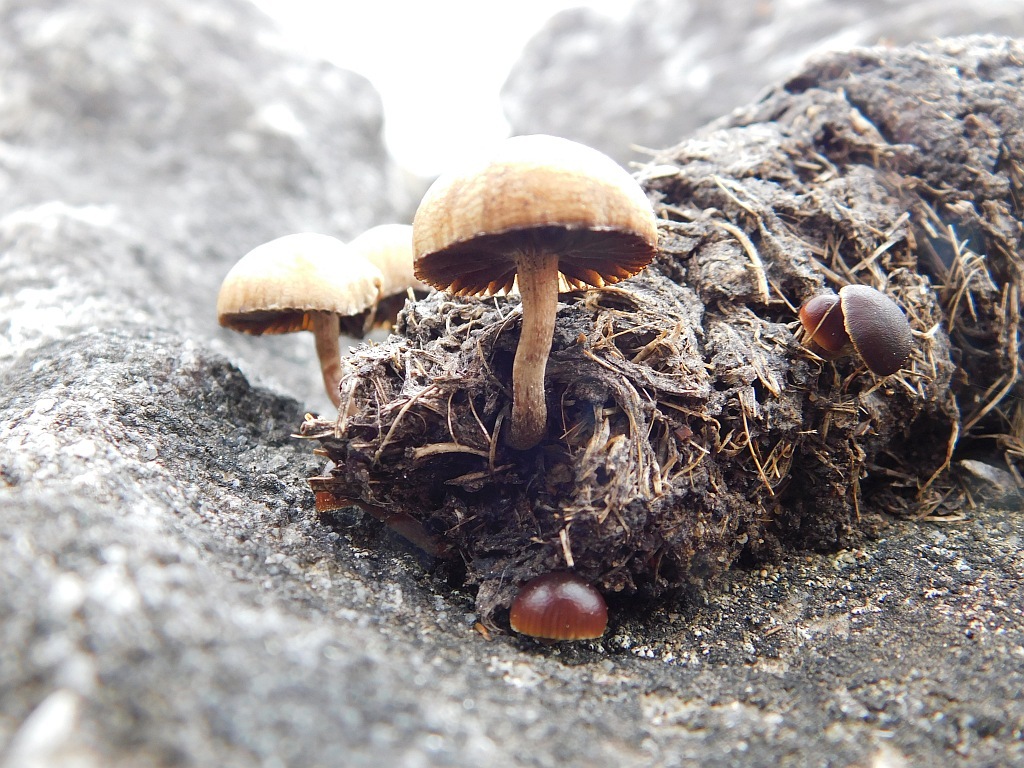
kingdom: Fungi
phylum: Basidiomycota
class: Agaricomycetes
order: Agaricales
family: Strophariaceae
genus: Deconica
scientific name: Deconica coprophila
